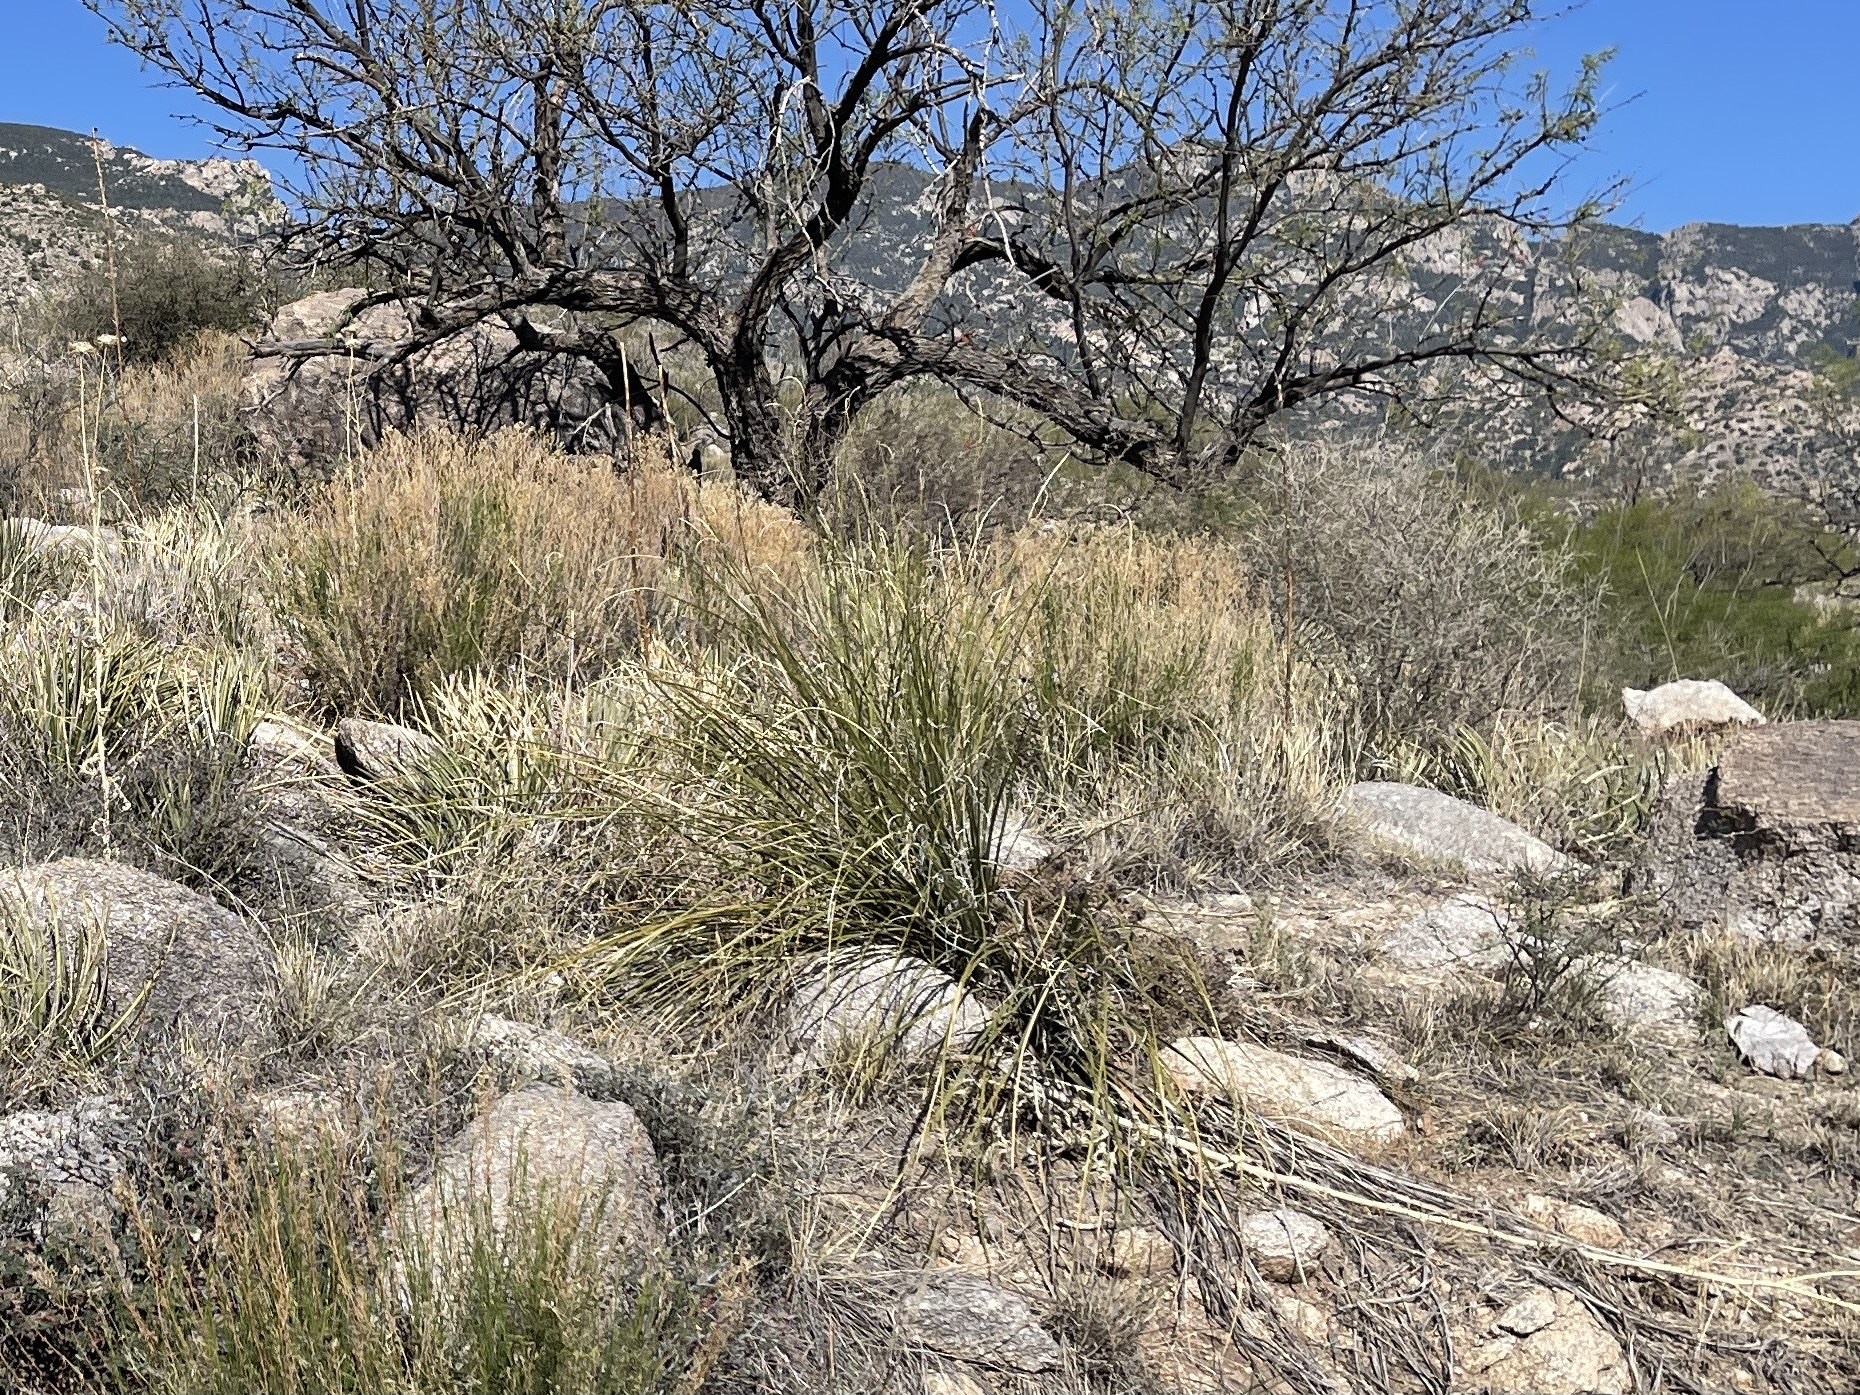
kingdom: Plantae
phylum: Tracheophyta
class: Liliopsida
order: Asparagales
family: Asparagaceae
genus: Nolina
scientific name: Nolina microcarpa
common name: Bear-grass
